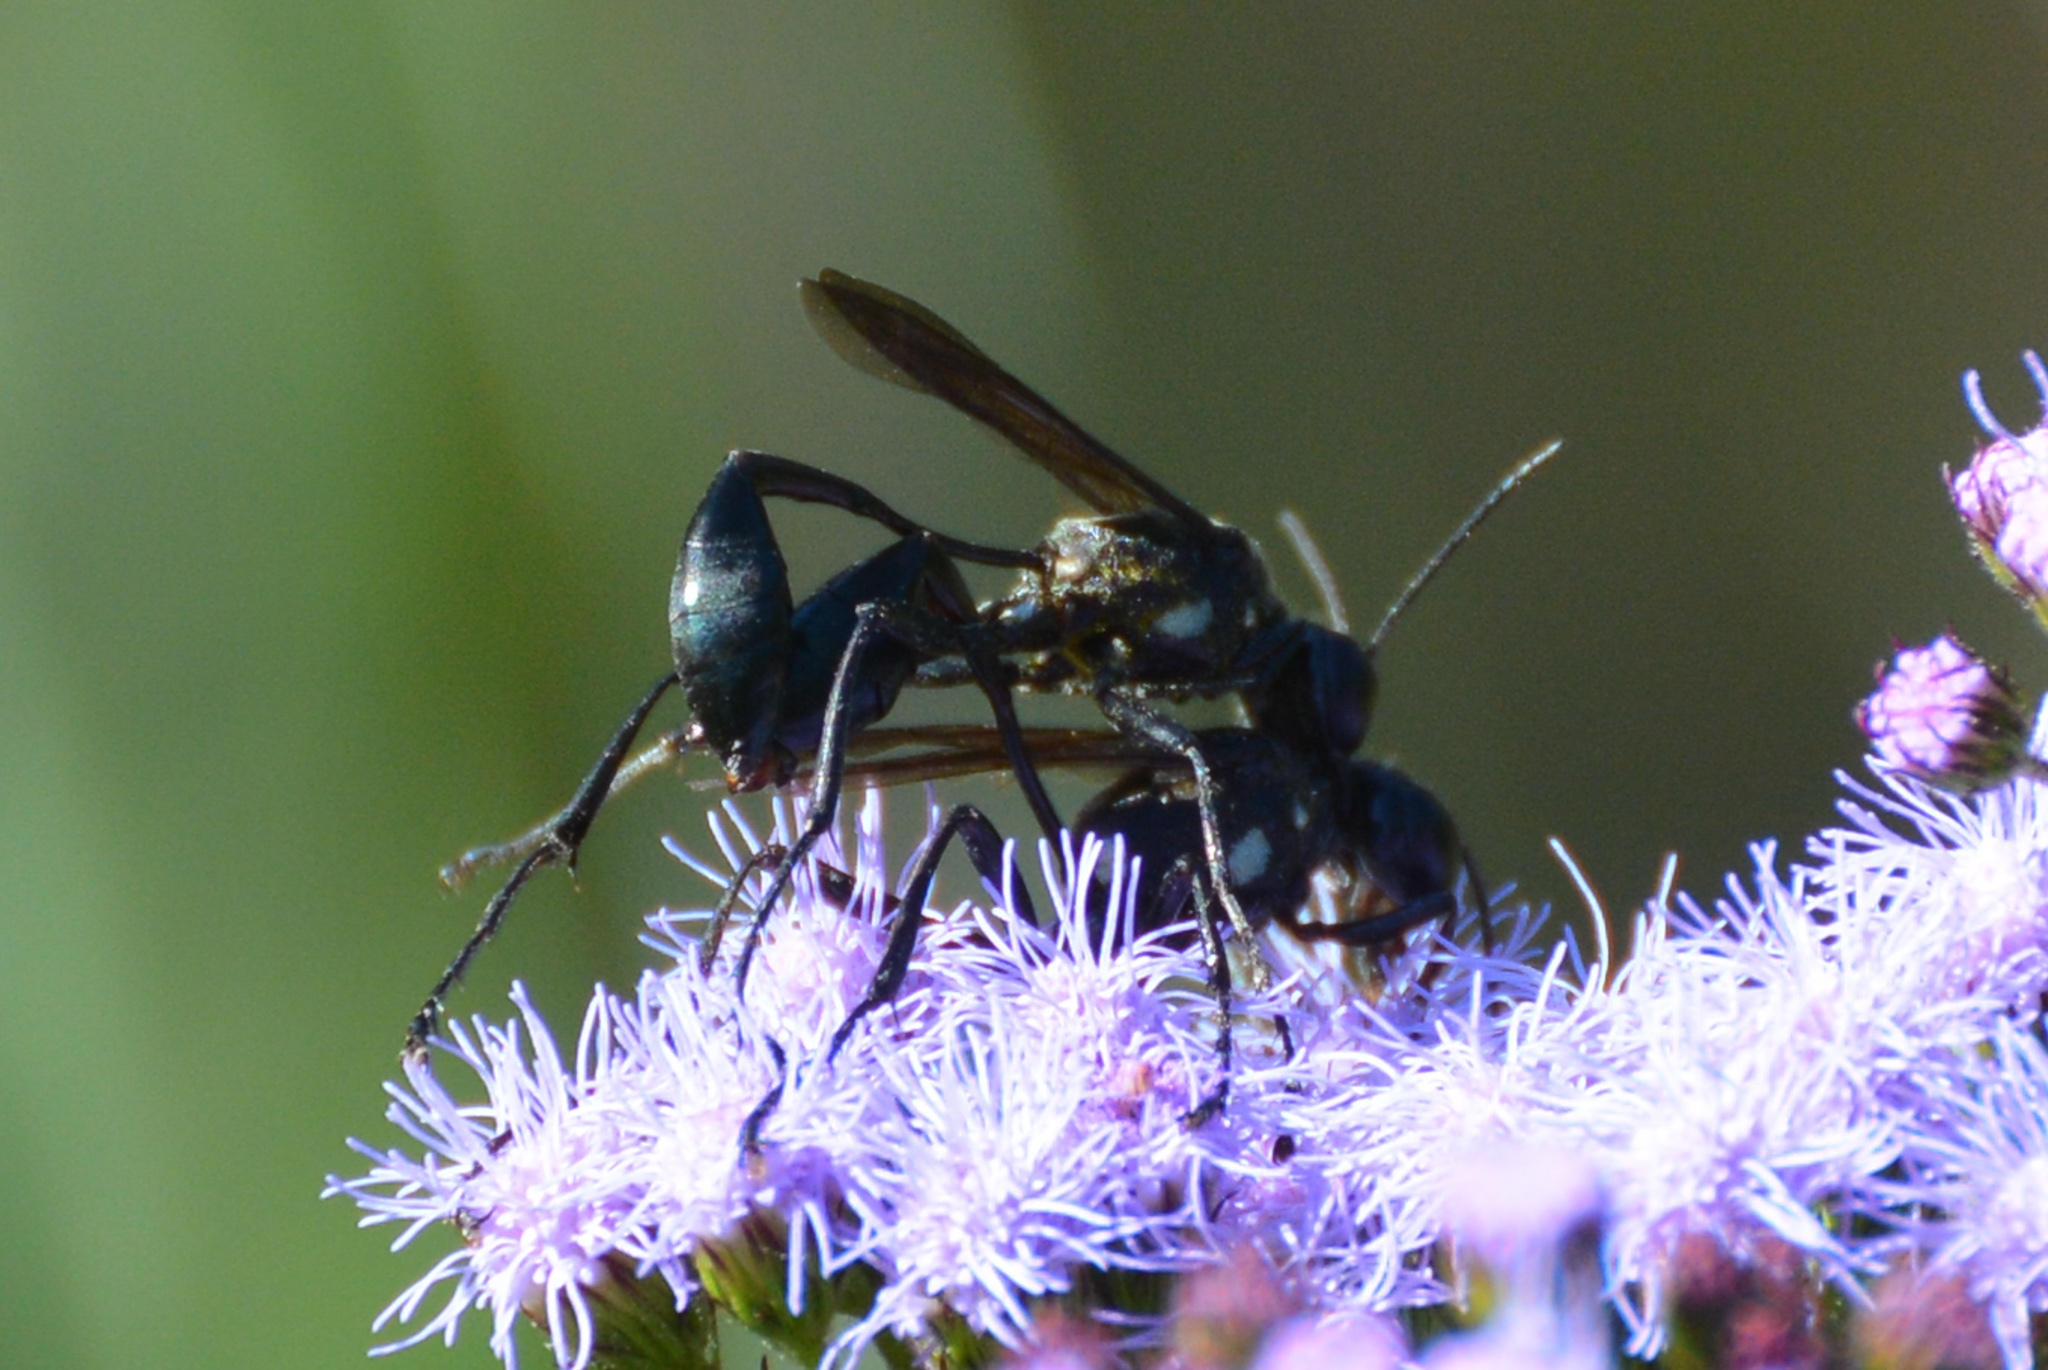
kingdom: Animalia
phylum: Arthropoda
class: Insecta
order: Hymenoptera
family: Sphecidae
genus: Eremnophila
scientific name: Eremnophila aureonotata
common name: Gold-marked thread-waisted wasp
